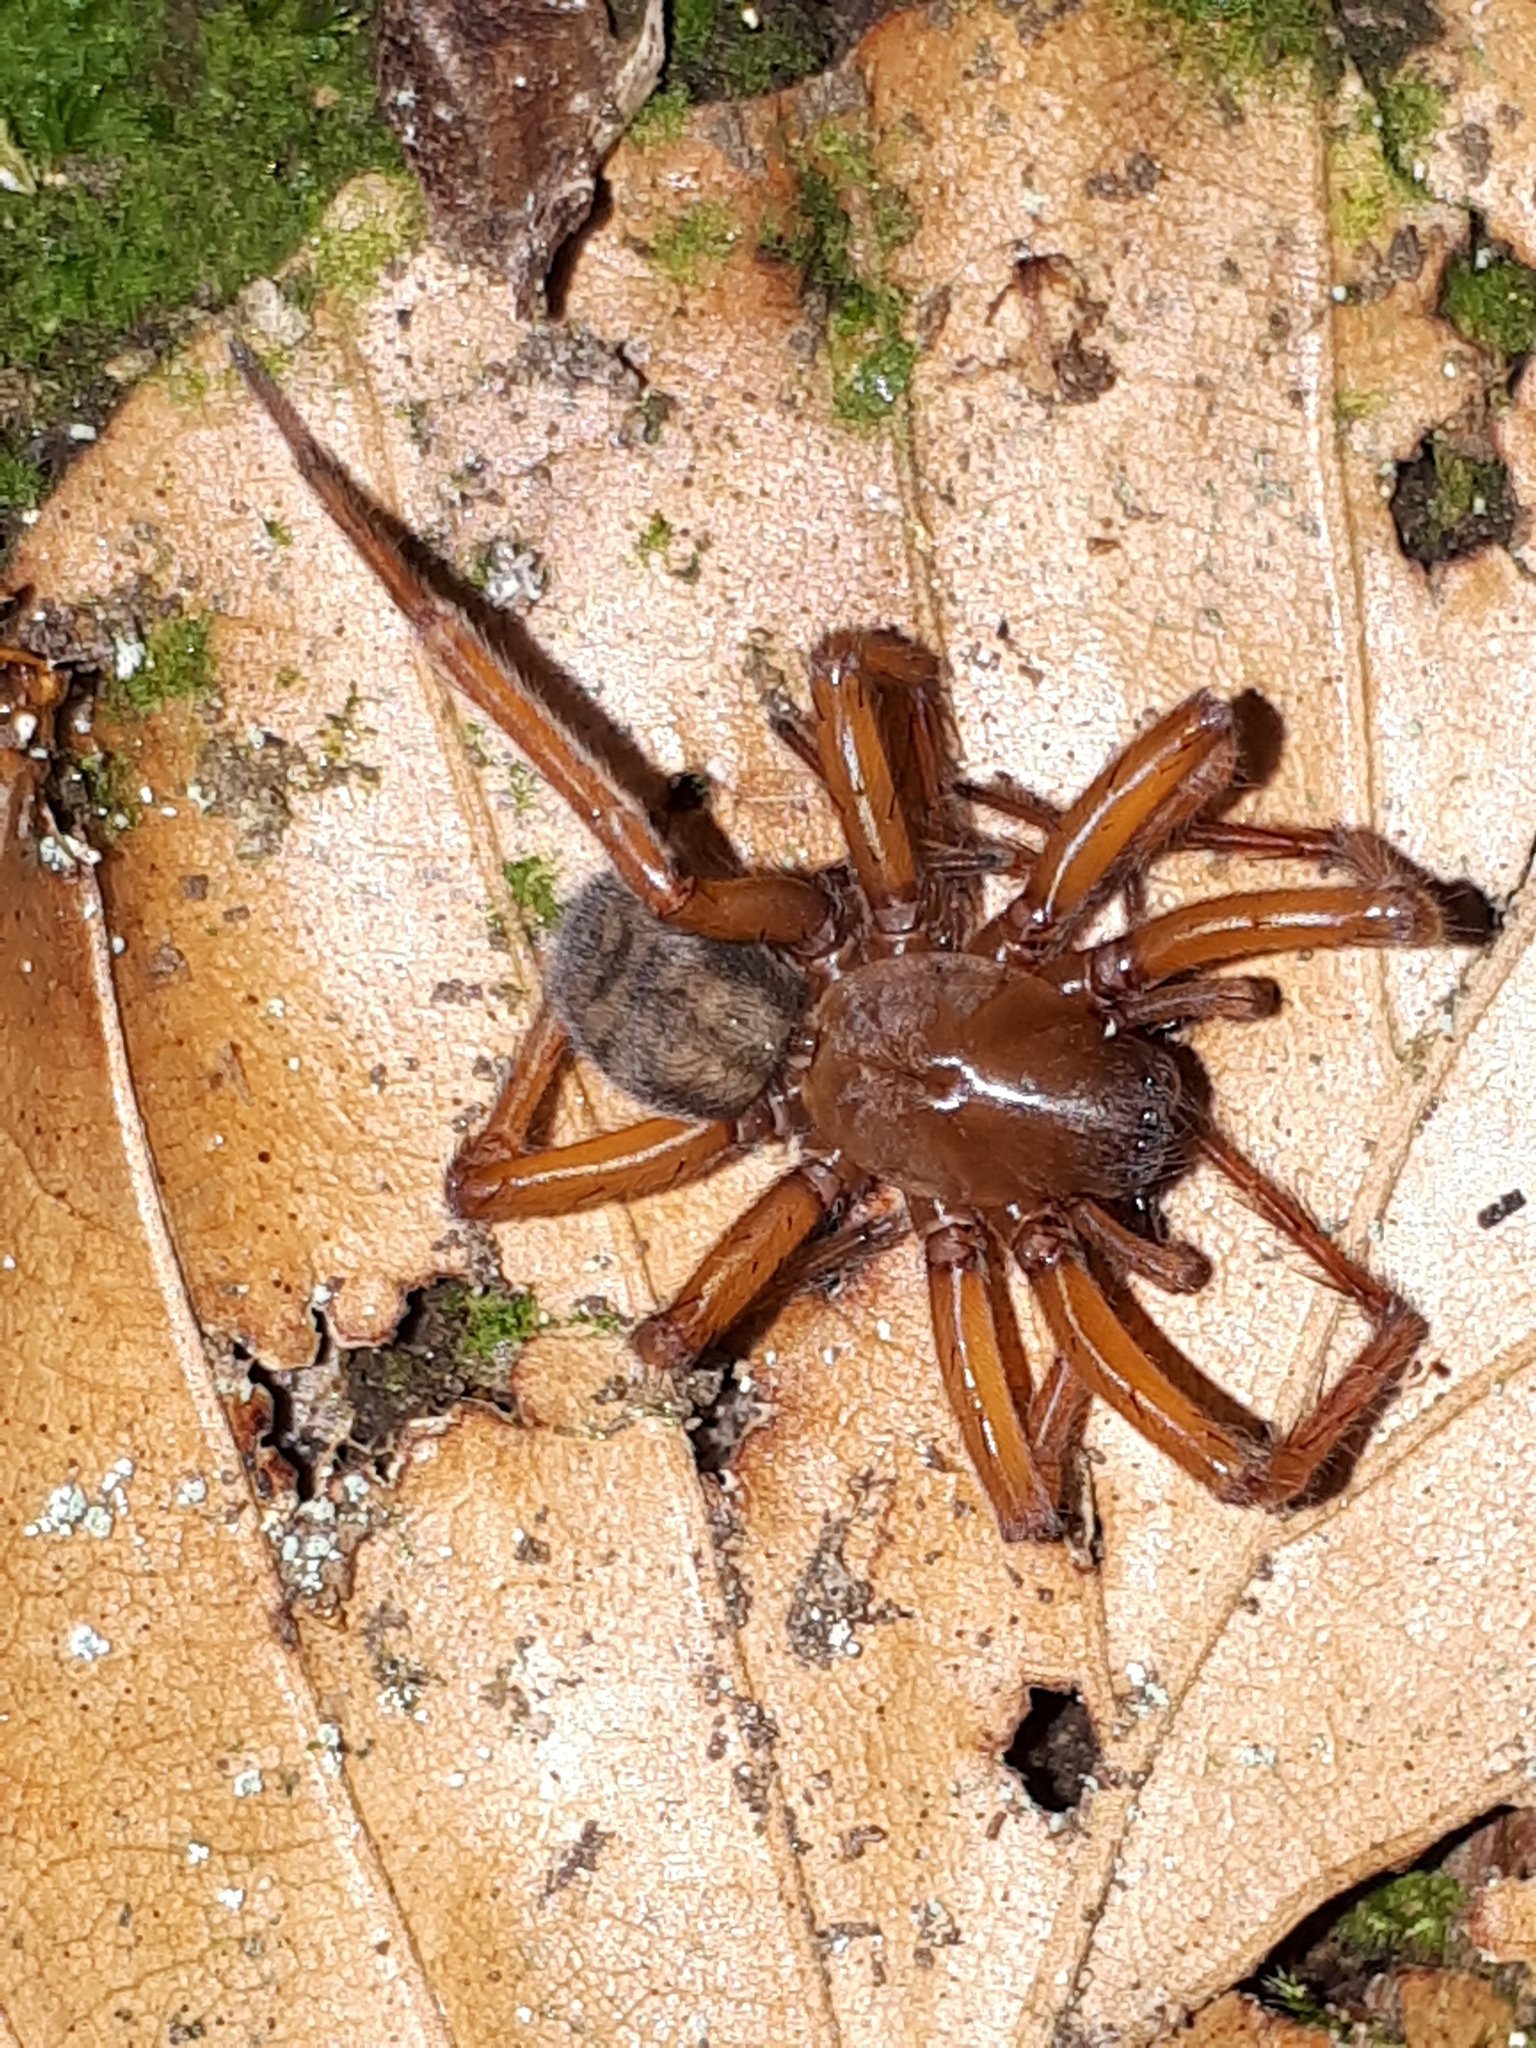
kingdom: Animalia
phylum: Arthropoda
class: Arachnida
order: Araneae
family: Amaurobiidae
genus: Callobius
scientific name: Callobius claustrarius
